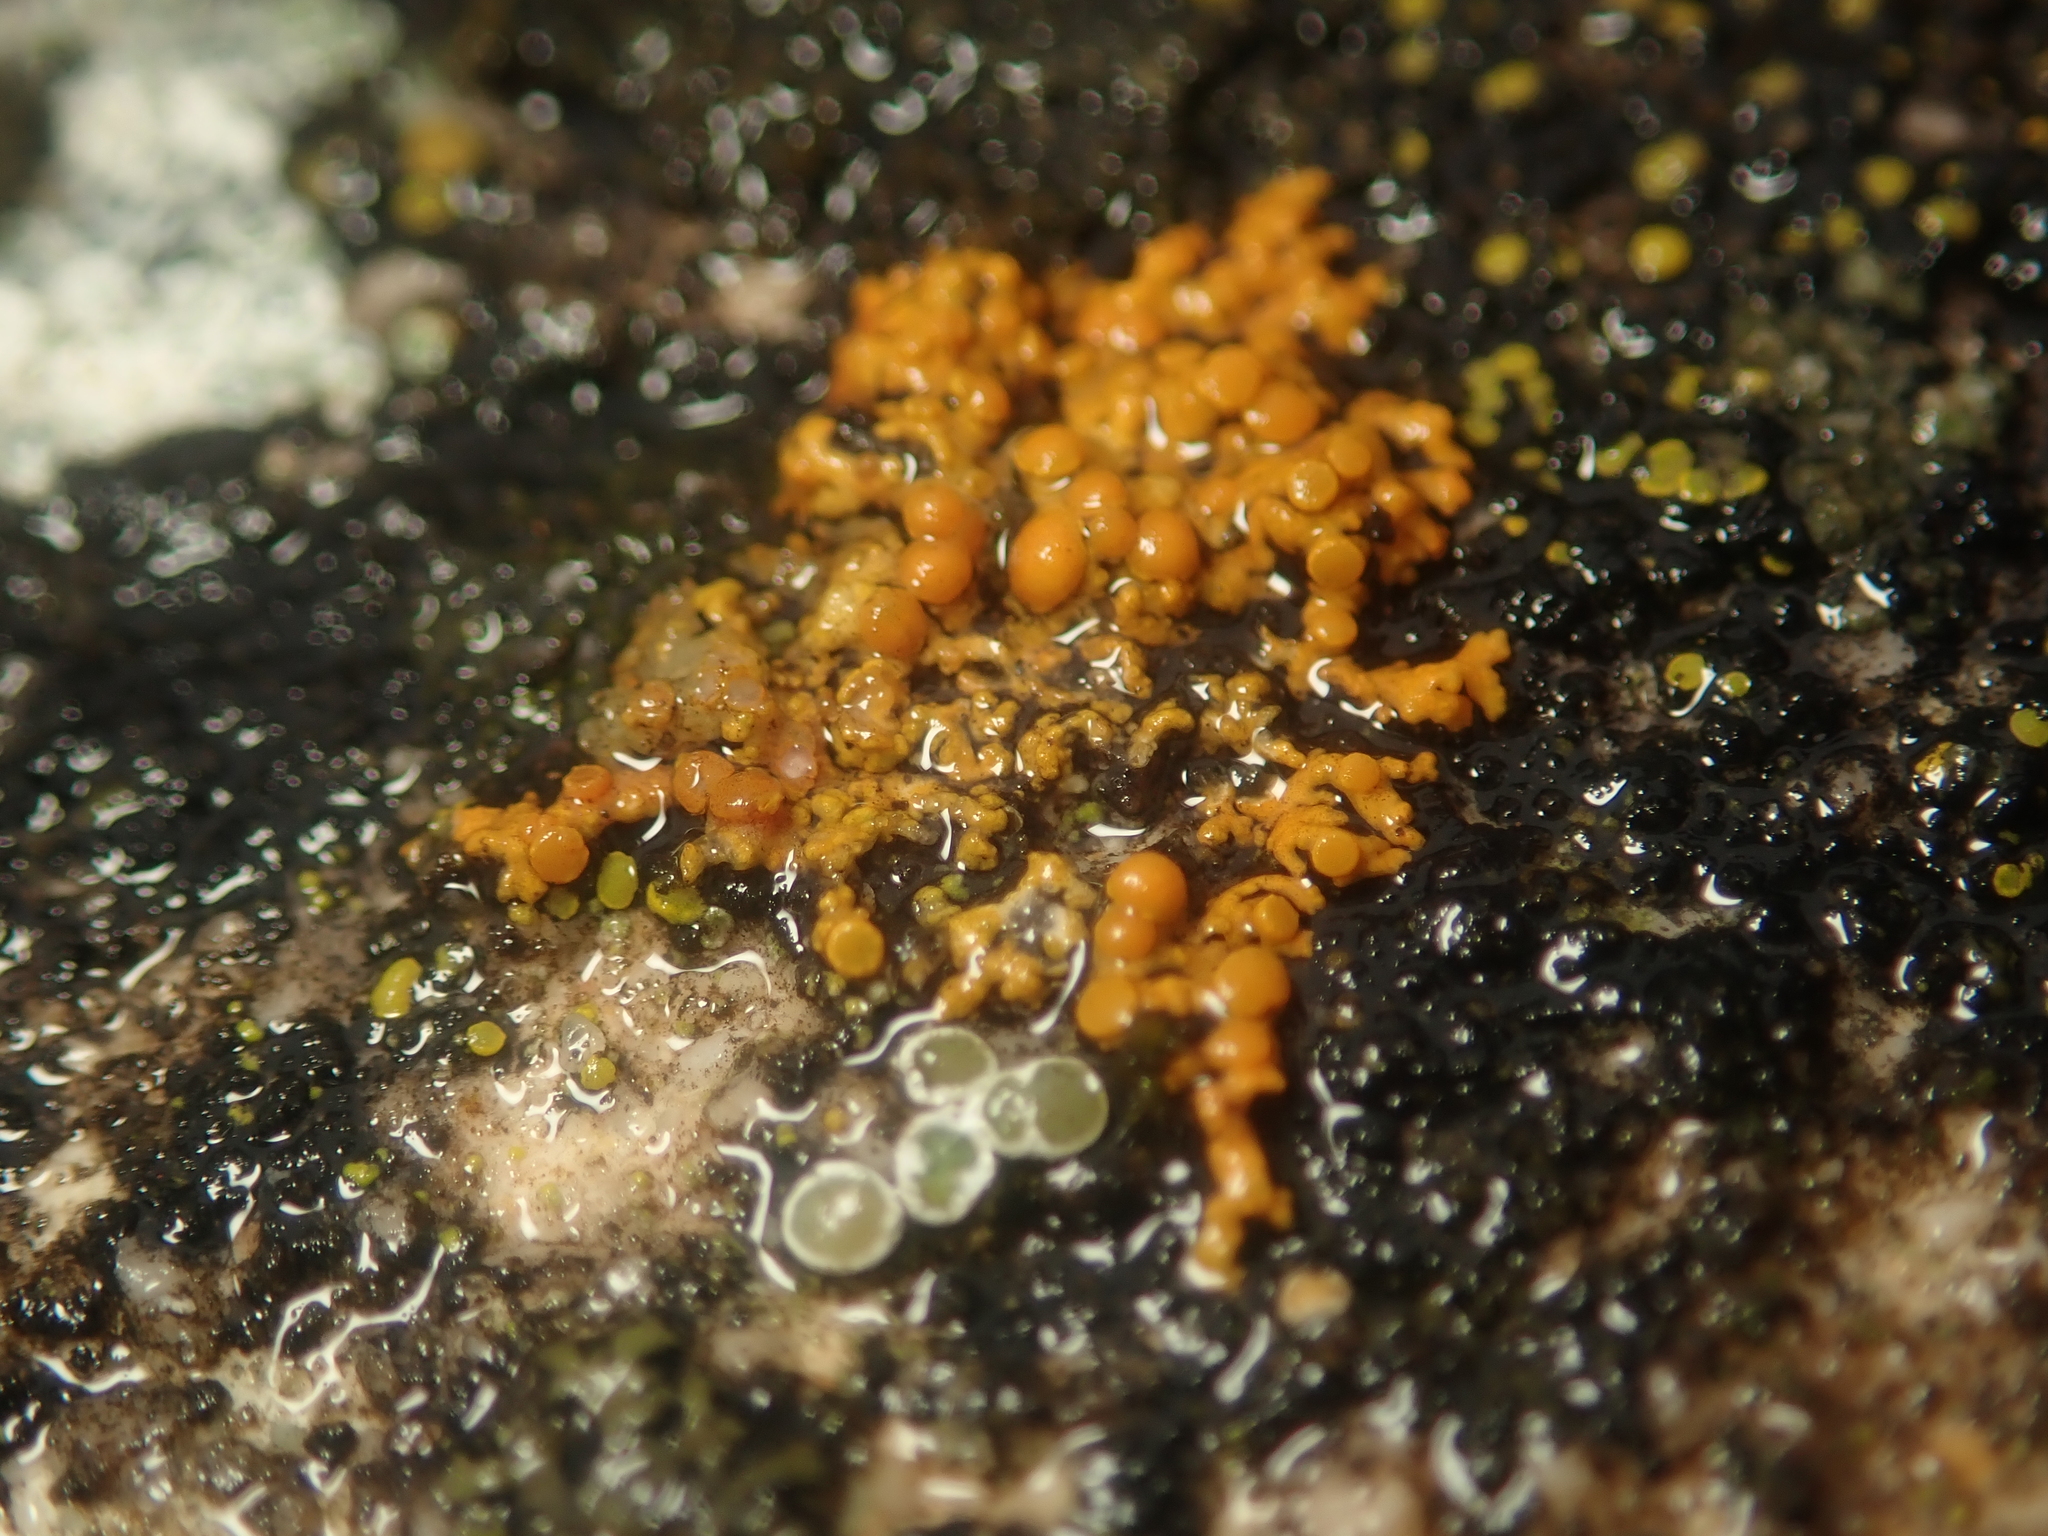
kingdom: Fungi
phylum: Ascomycota
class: Lecanoromycetes
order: Teloschistales
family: Teloschistaceae
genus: Xanthoria
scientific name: Xanthoria elegans
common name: Elegant sunburst lichen
